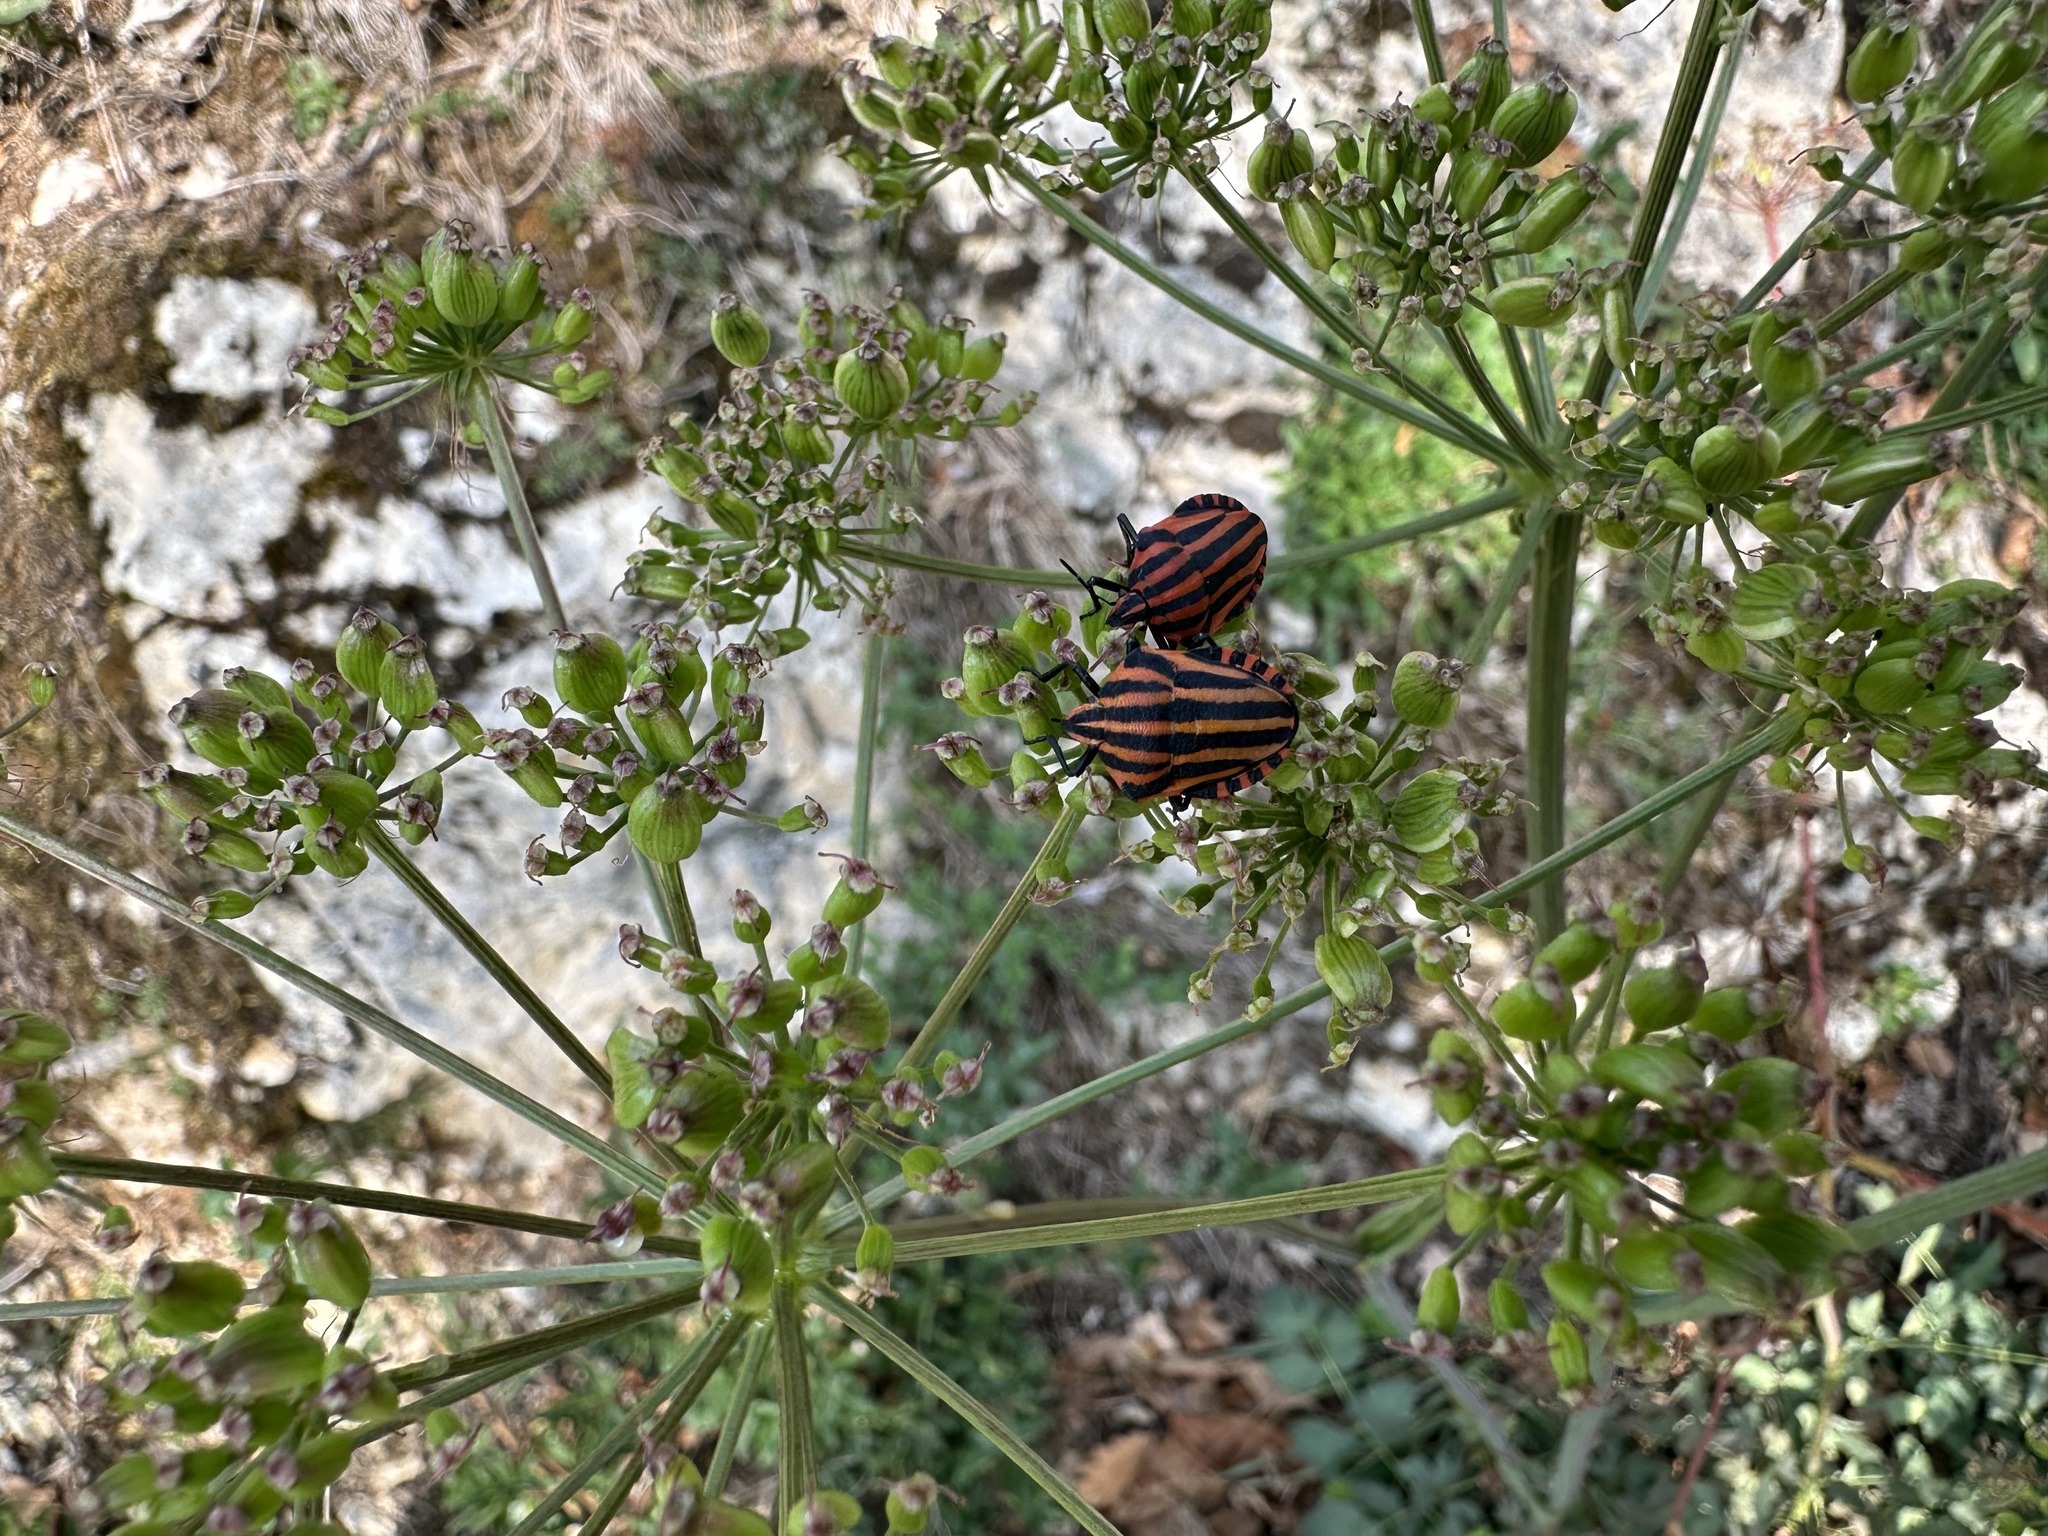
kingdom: Animalia
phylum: Arthropoda
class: Insecta
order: Hemiptera
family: Pentatomidae
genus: Graphosoma
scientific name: Graphosoma italicum
